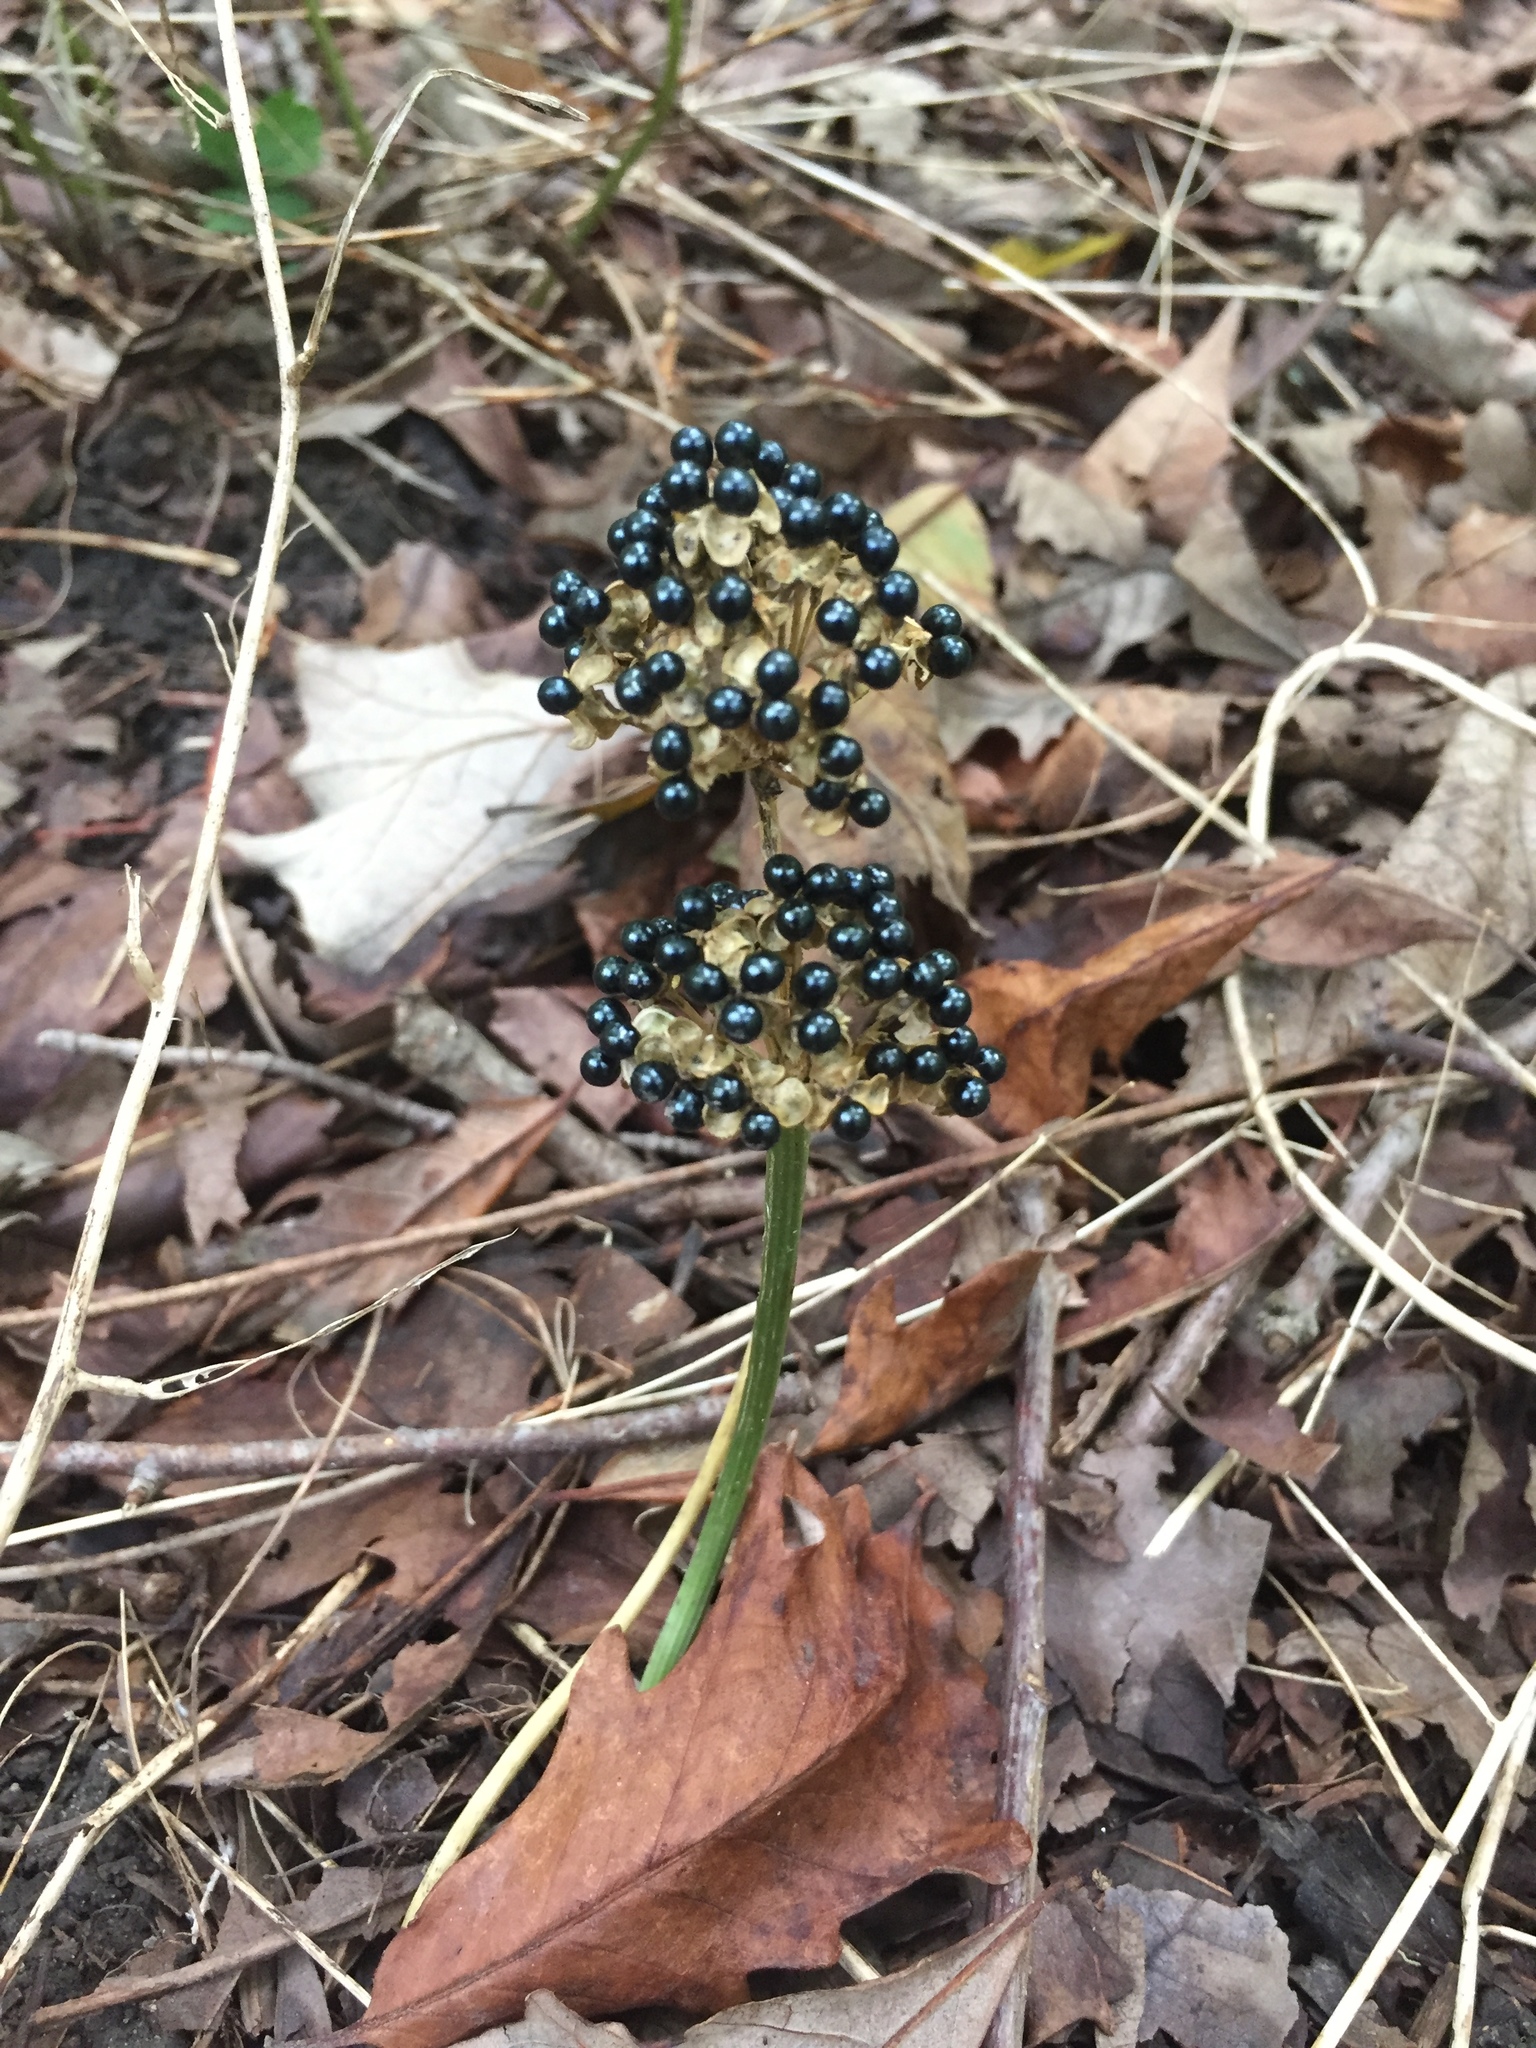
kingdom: Plantae
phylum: Tracheophyta
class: Liliopsida
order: Asparagales
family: Amaryllidaceae
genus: Allium
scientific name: Allium tricoccum
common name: Ramp
